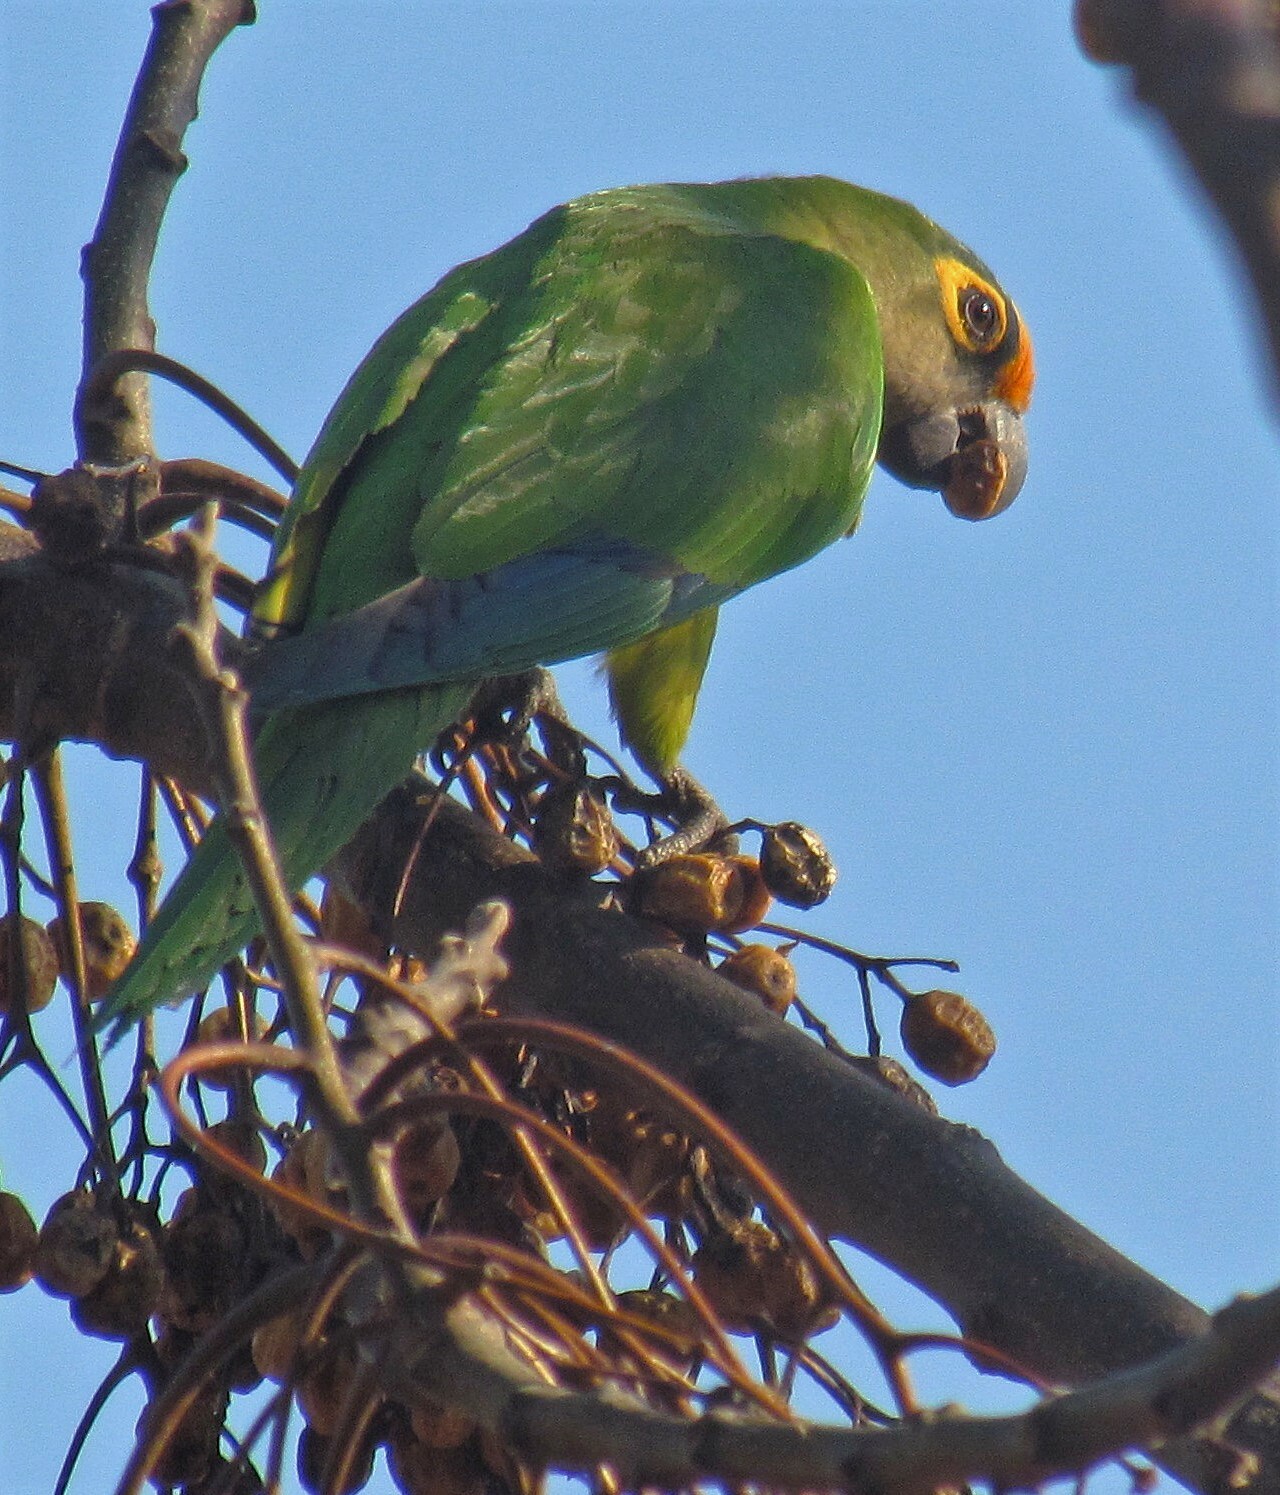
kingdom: Animalia
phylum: Chordata
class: Aves
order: Psittaciformes
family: Psittacidae
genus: Aratinga
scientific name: Aratinga aurea
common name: Peach-fronted parakeet
